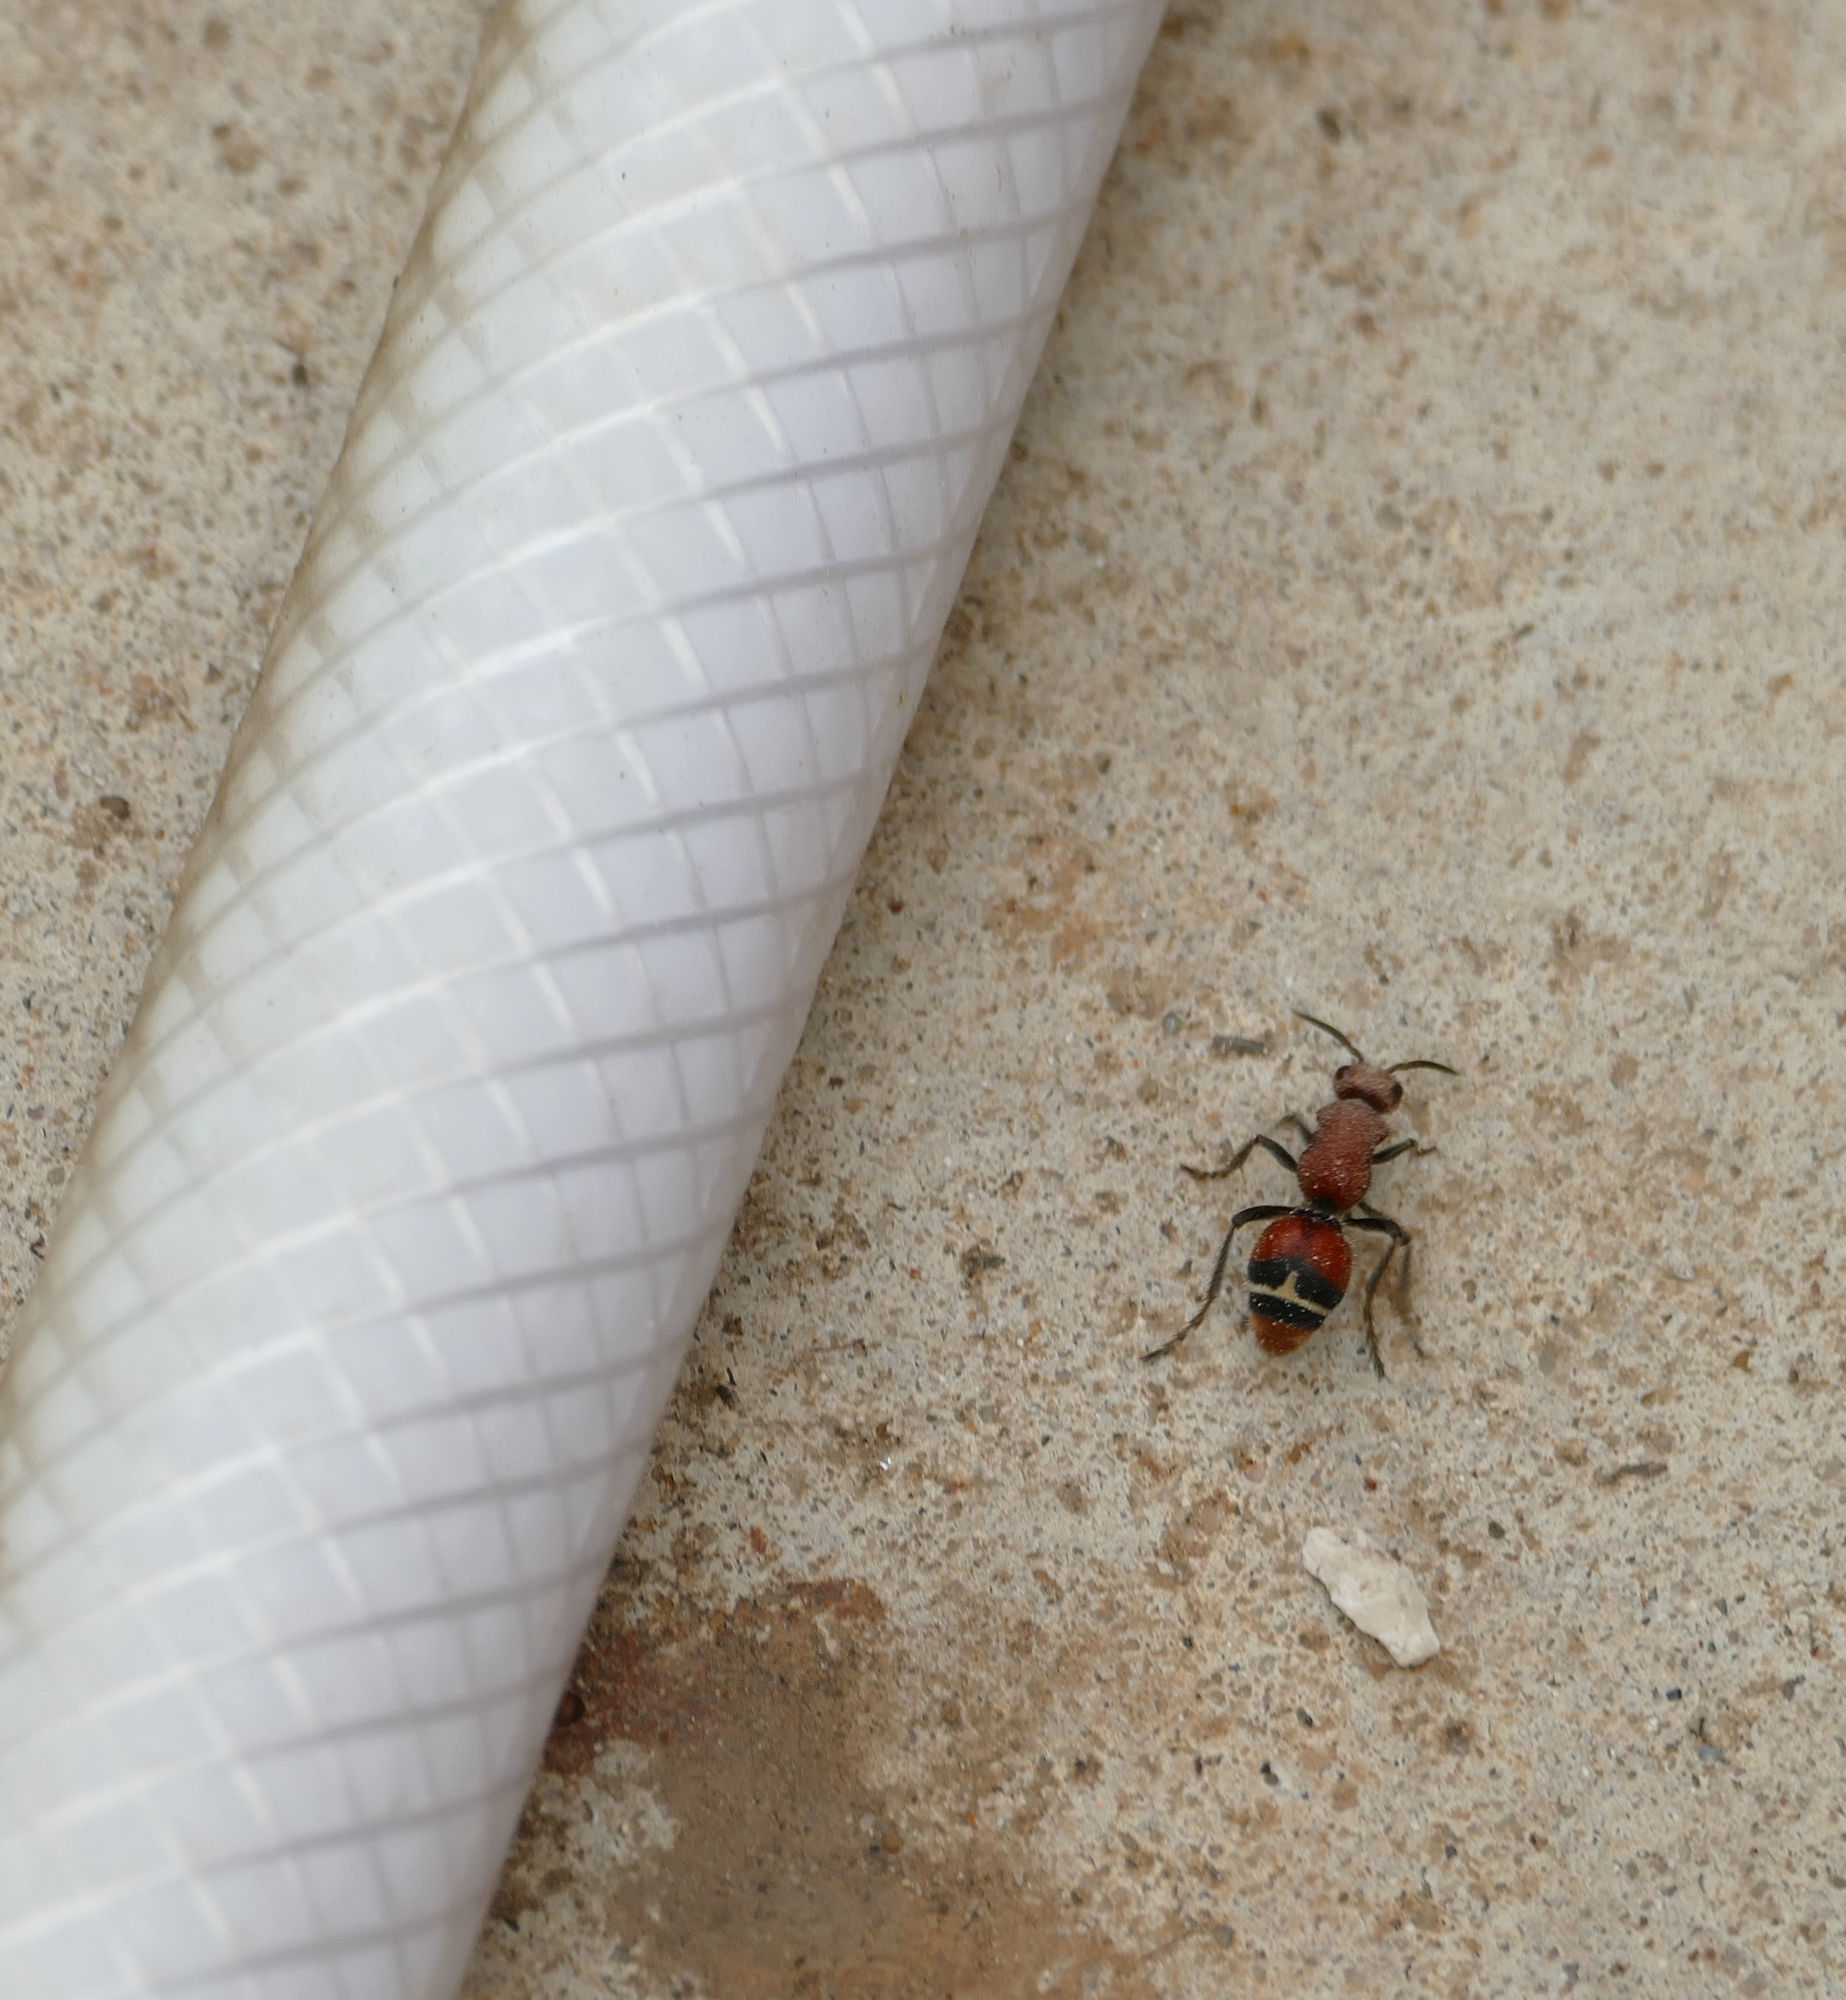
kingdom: Animalia
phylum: Arthropoda
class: Insecta
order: Hymenoptera
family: Mutillidae
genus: Timulla
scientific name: Timulla
